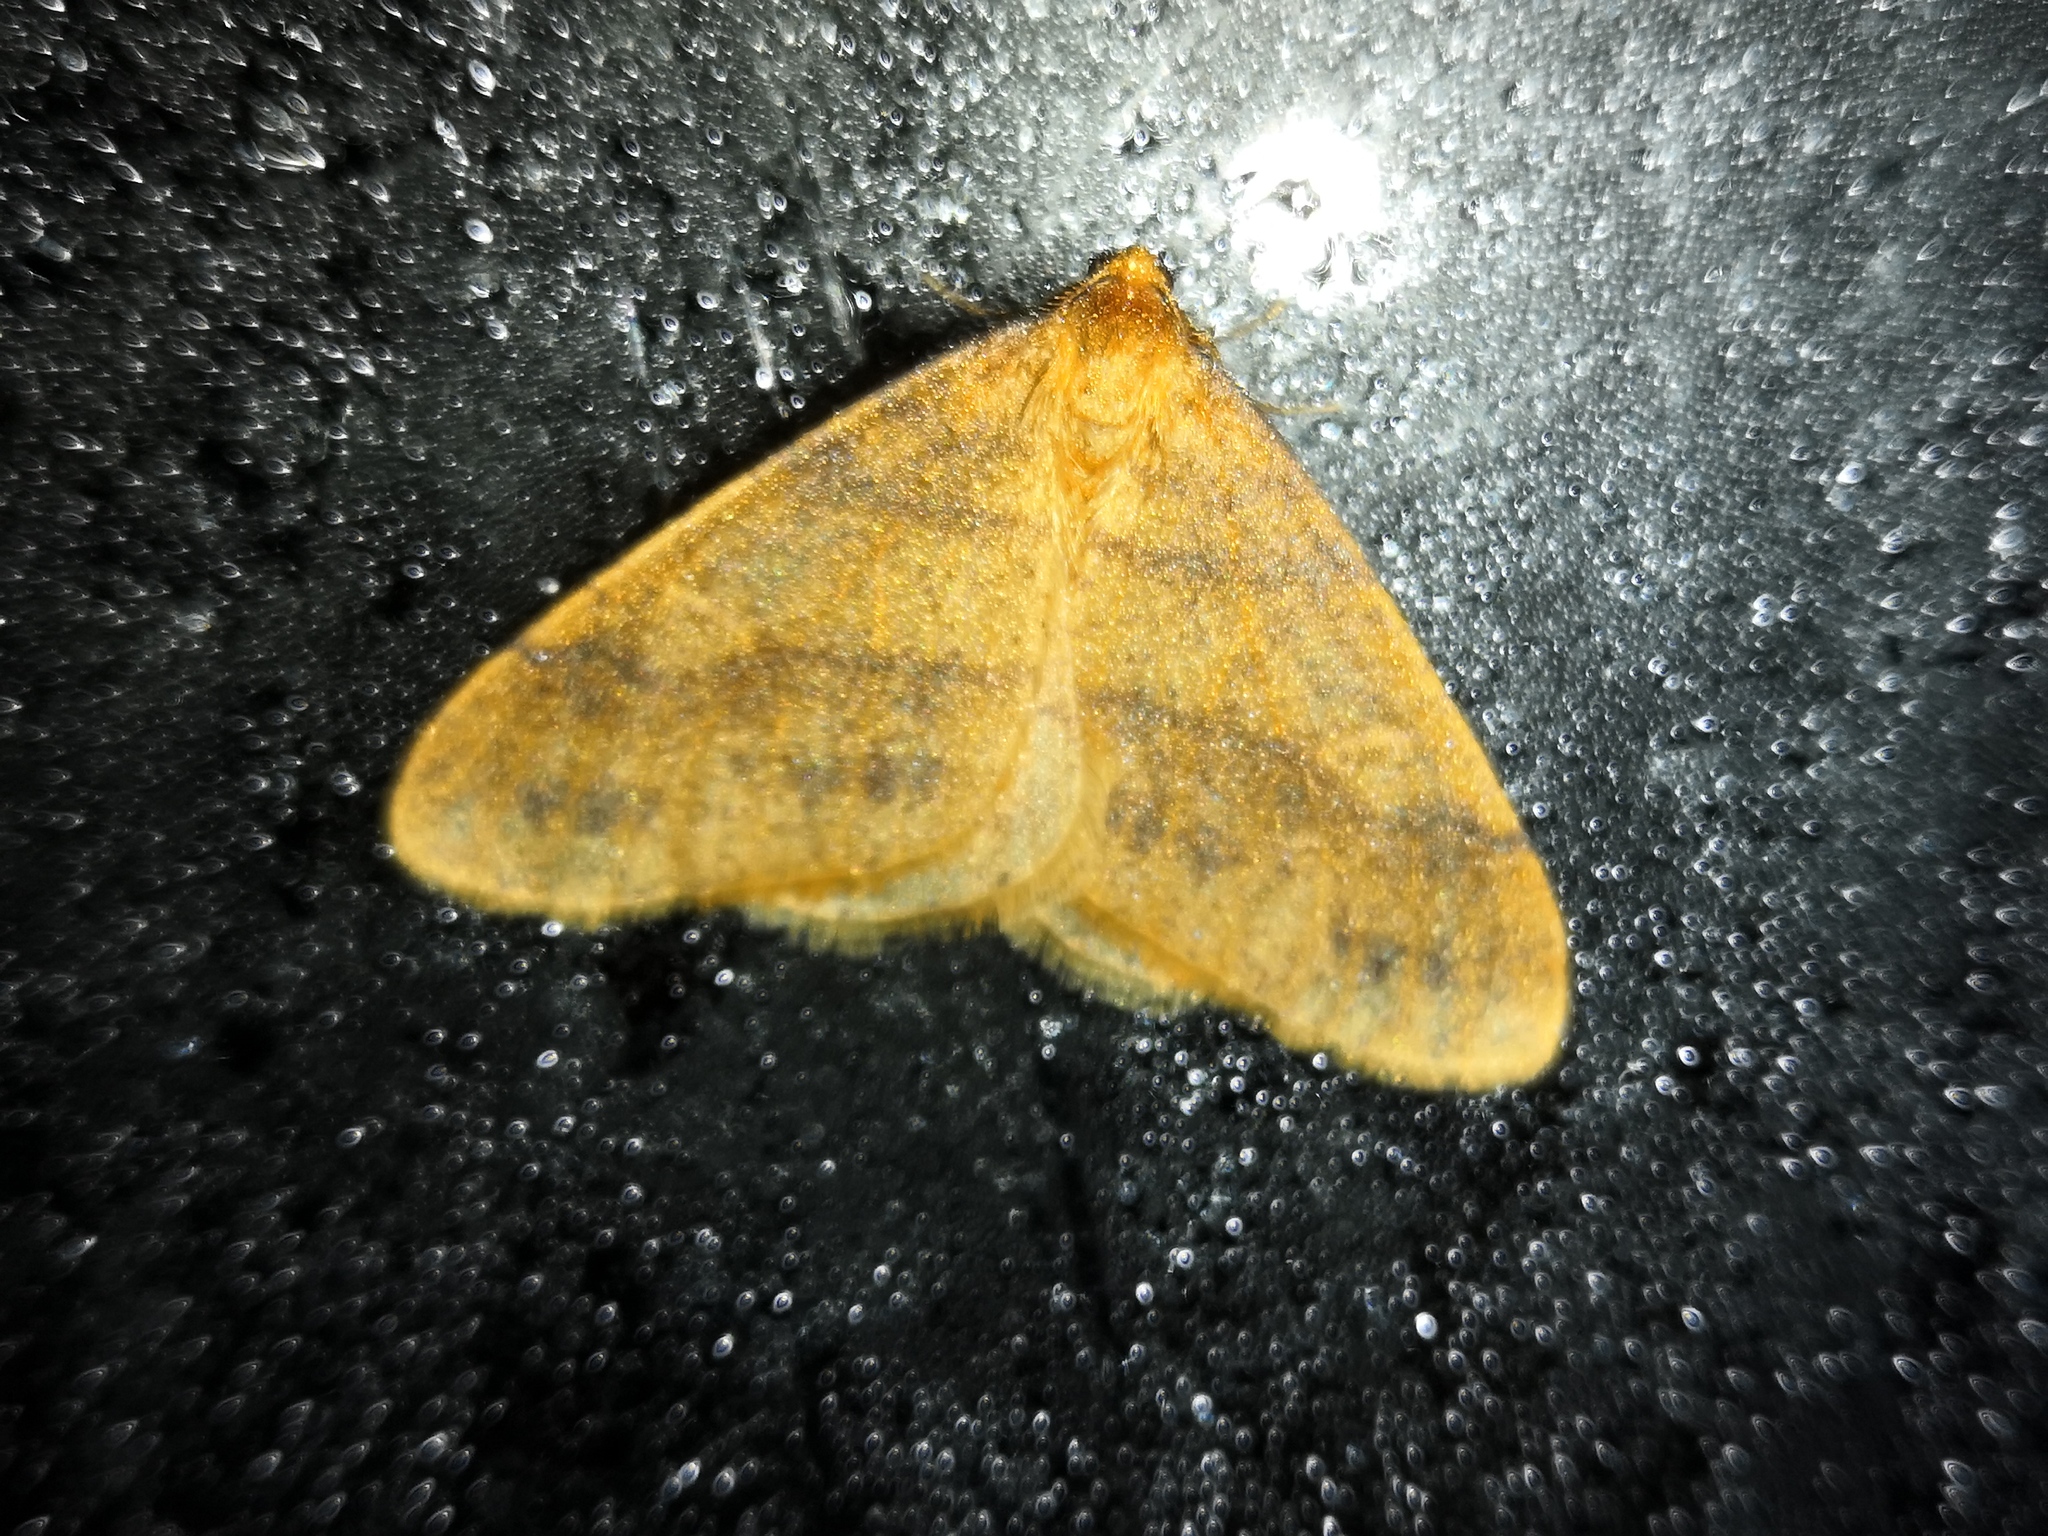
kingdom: Animalia
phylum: Arthropoda
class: Insecta
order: Lepidoptera
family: Geometridae
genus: Agriopis
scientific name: Agriopis aurantiaria
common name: Scarce umber
